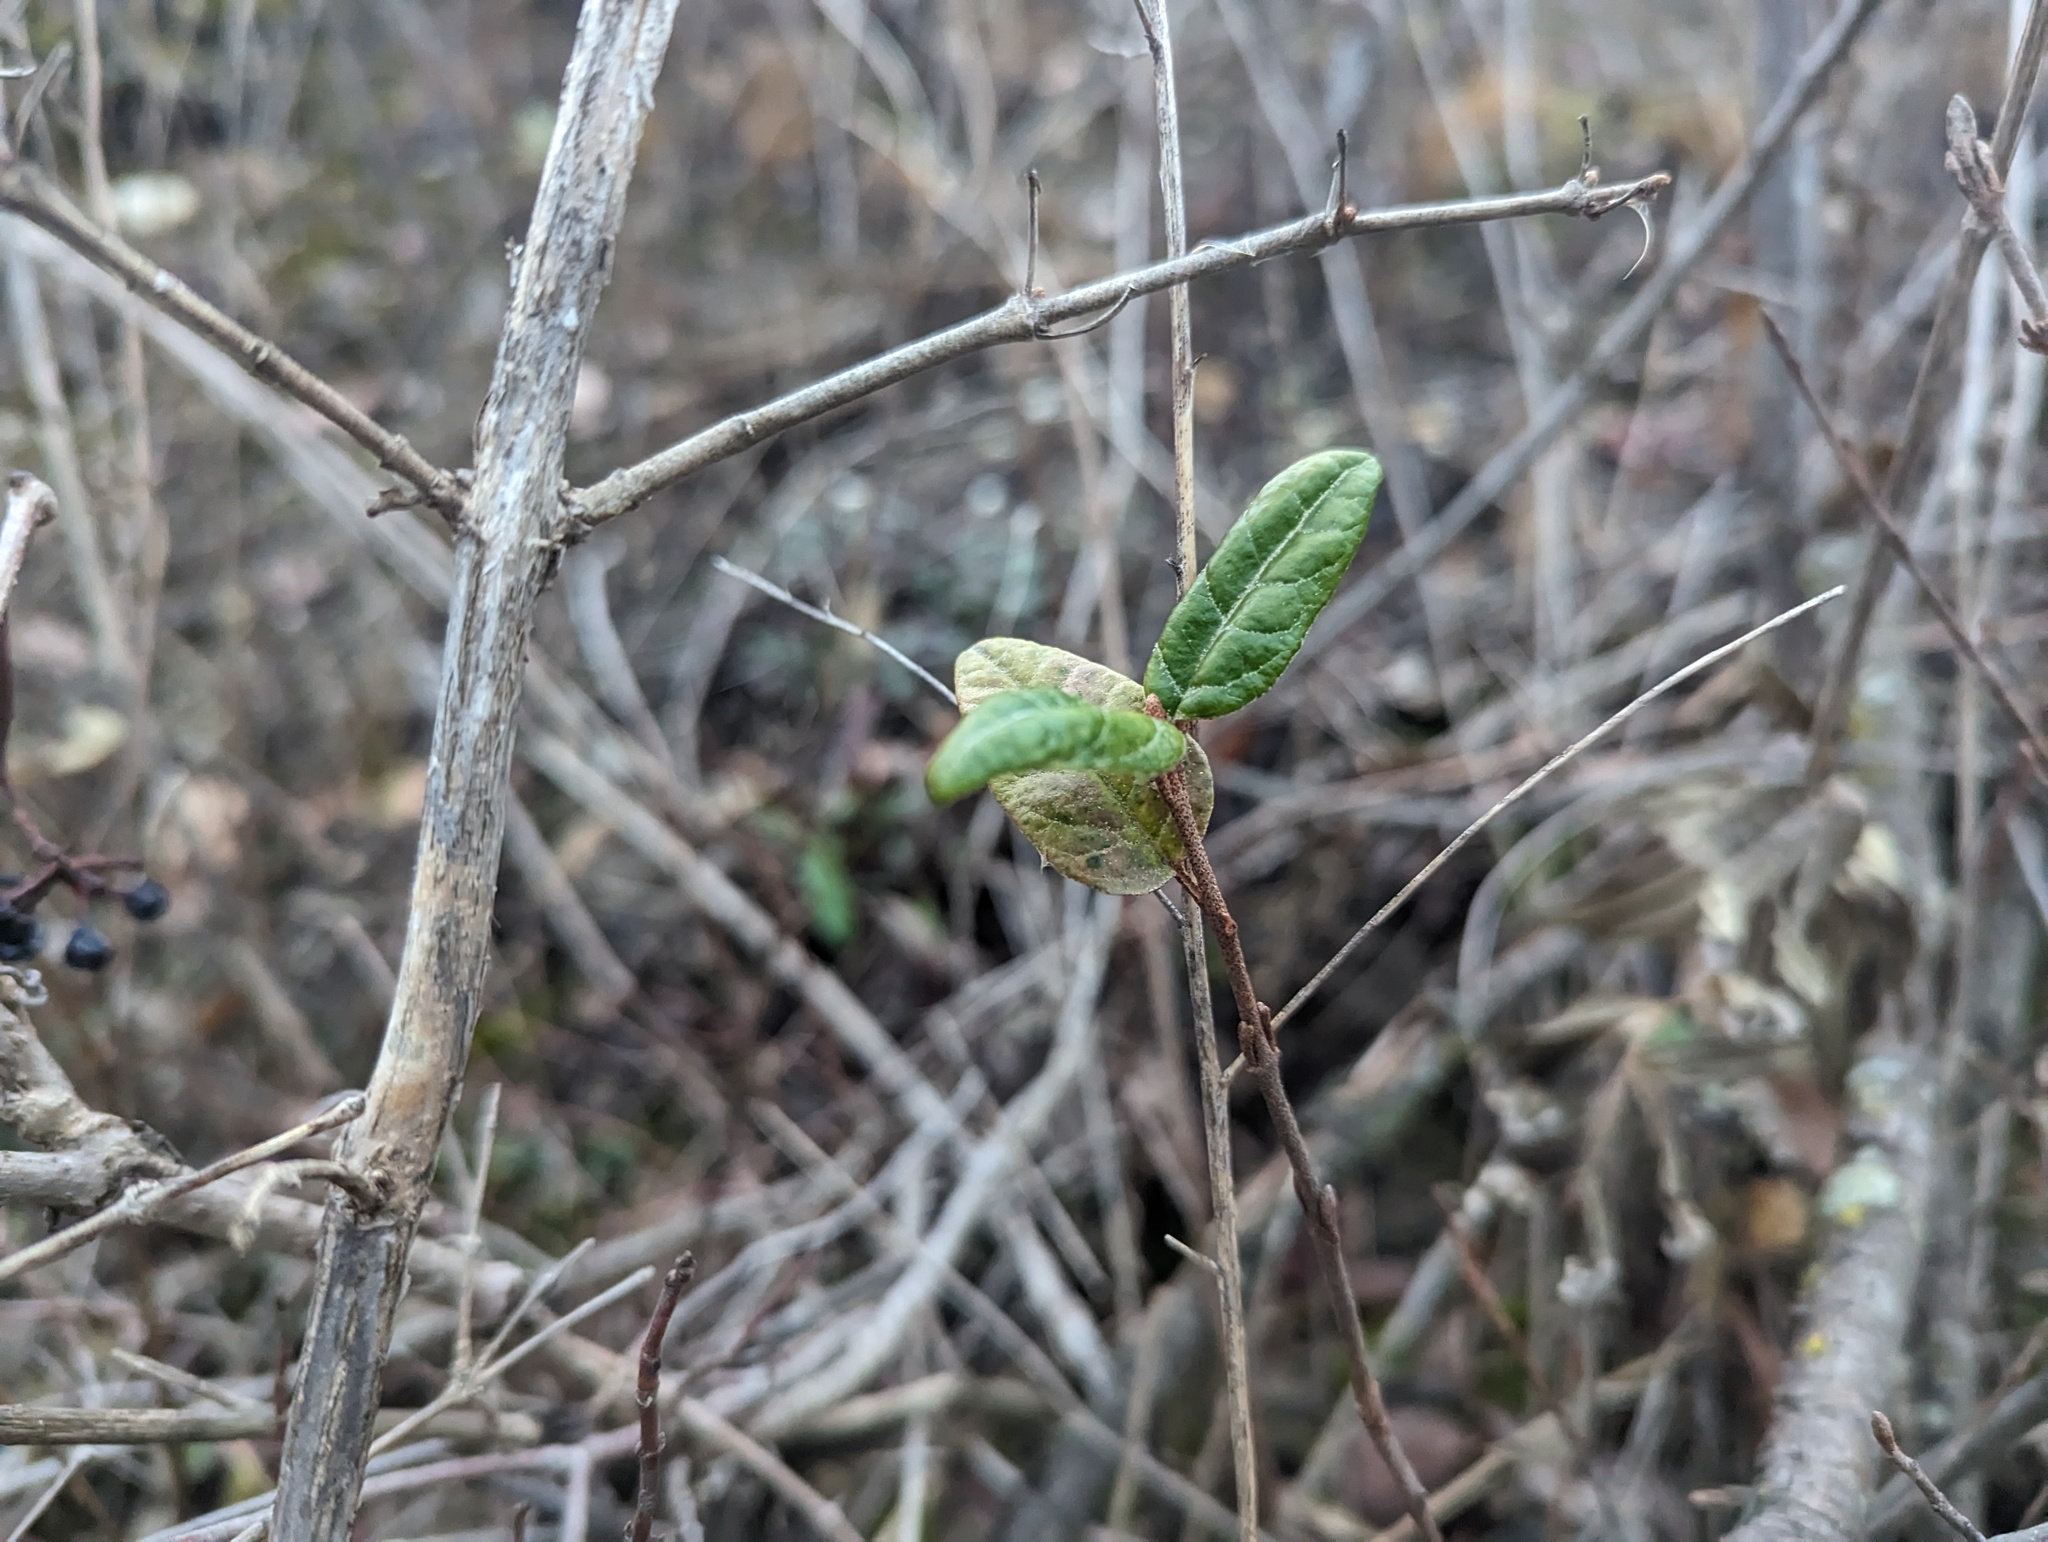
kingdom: Plantae
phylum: Tracheophyta
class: Magnoliopsida
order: Rosales
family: Elaeagnaceae
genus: Shepherdia
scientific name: Shepherdia canadensis
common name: Soapberry
